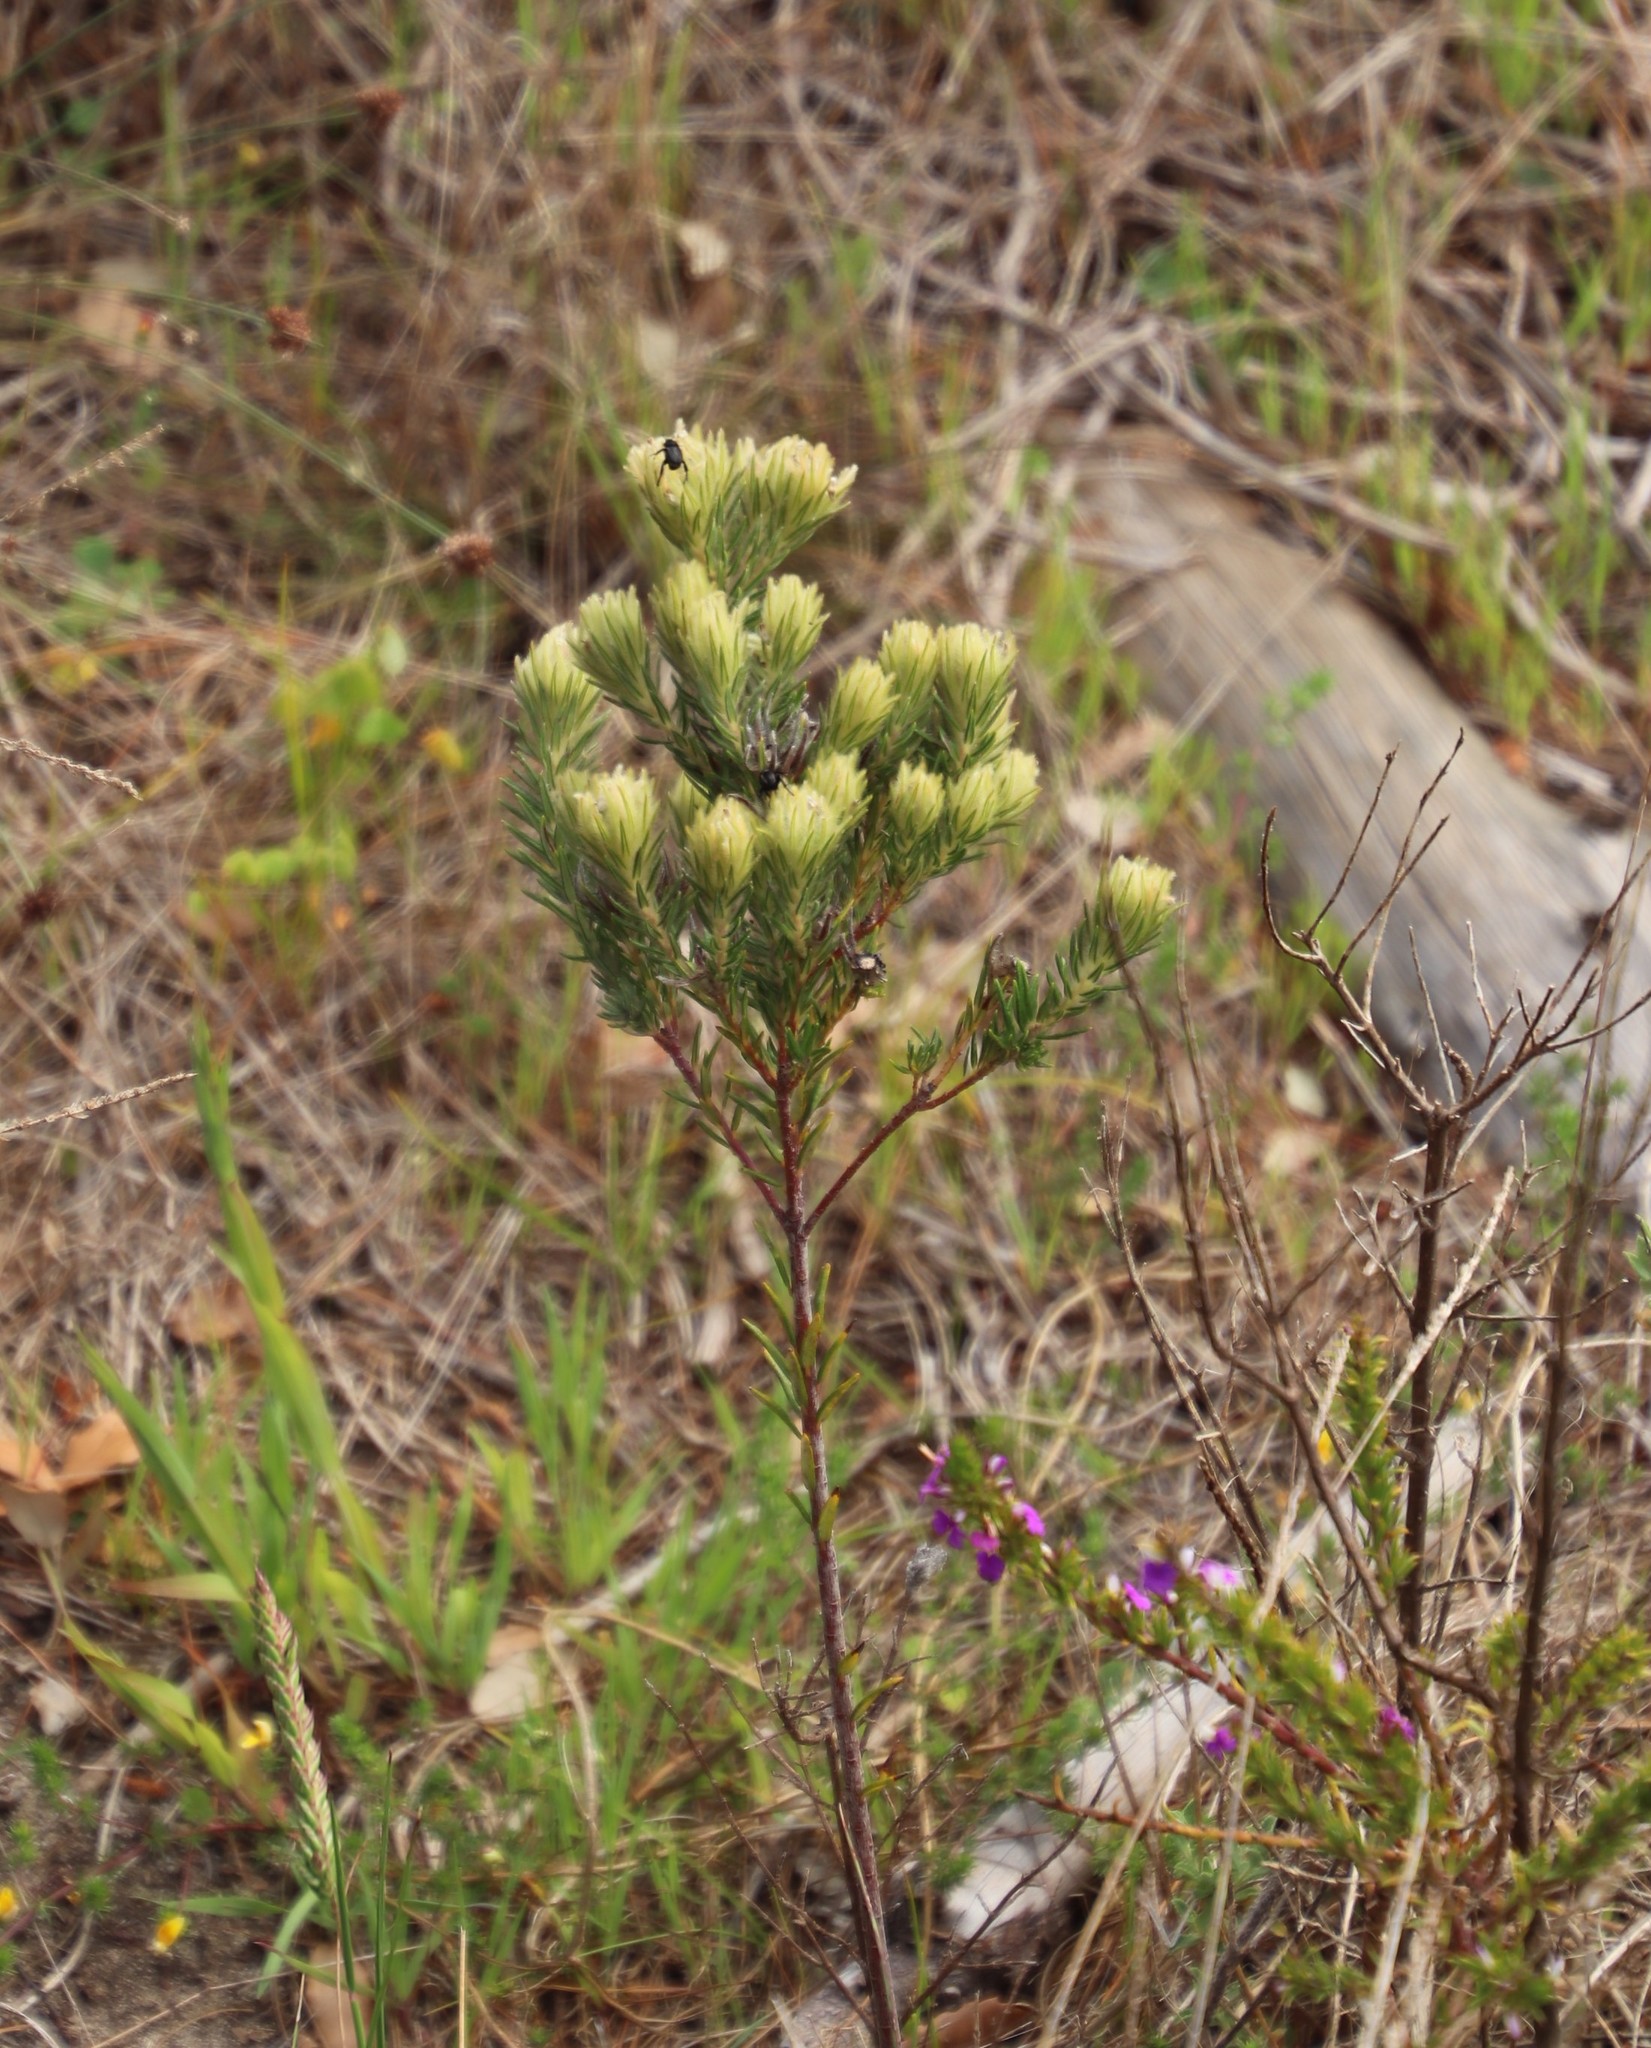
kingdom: Plantae
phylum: Tracheophyta
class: Magnoliopsida
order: Rosales
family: Rhamnaceae
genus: Phylica
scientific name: Phylica pubescens
